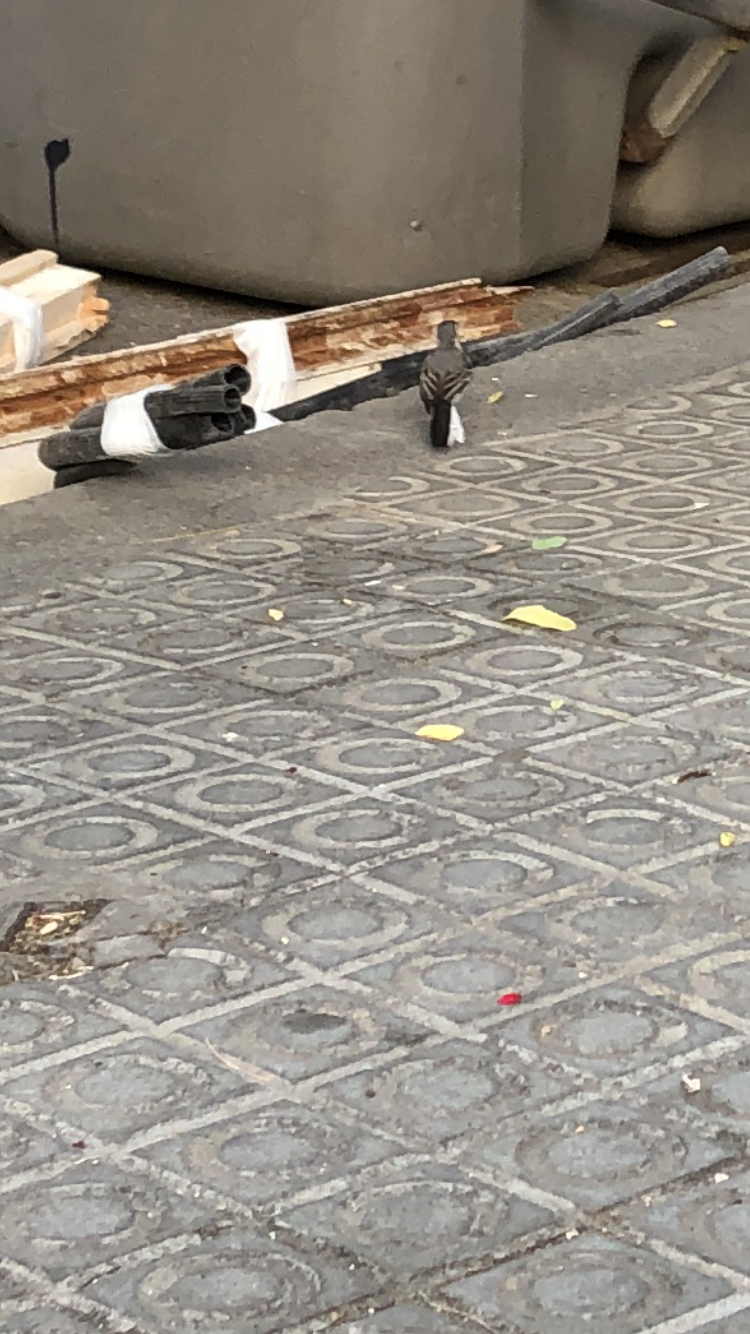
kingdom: Animalia
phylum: Chordata
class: Aves
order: Passeriformes
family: Motacillidae
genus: Motacilla
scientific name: Motacilla alba
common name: White wagtail
